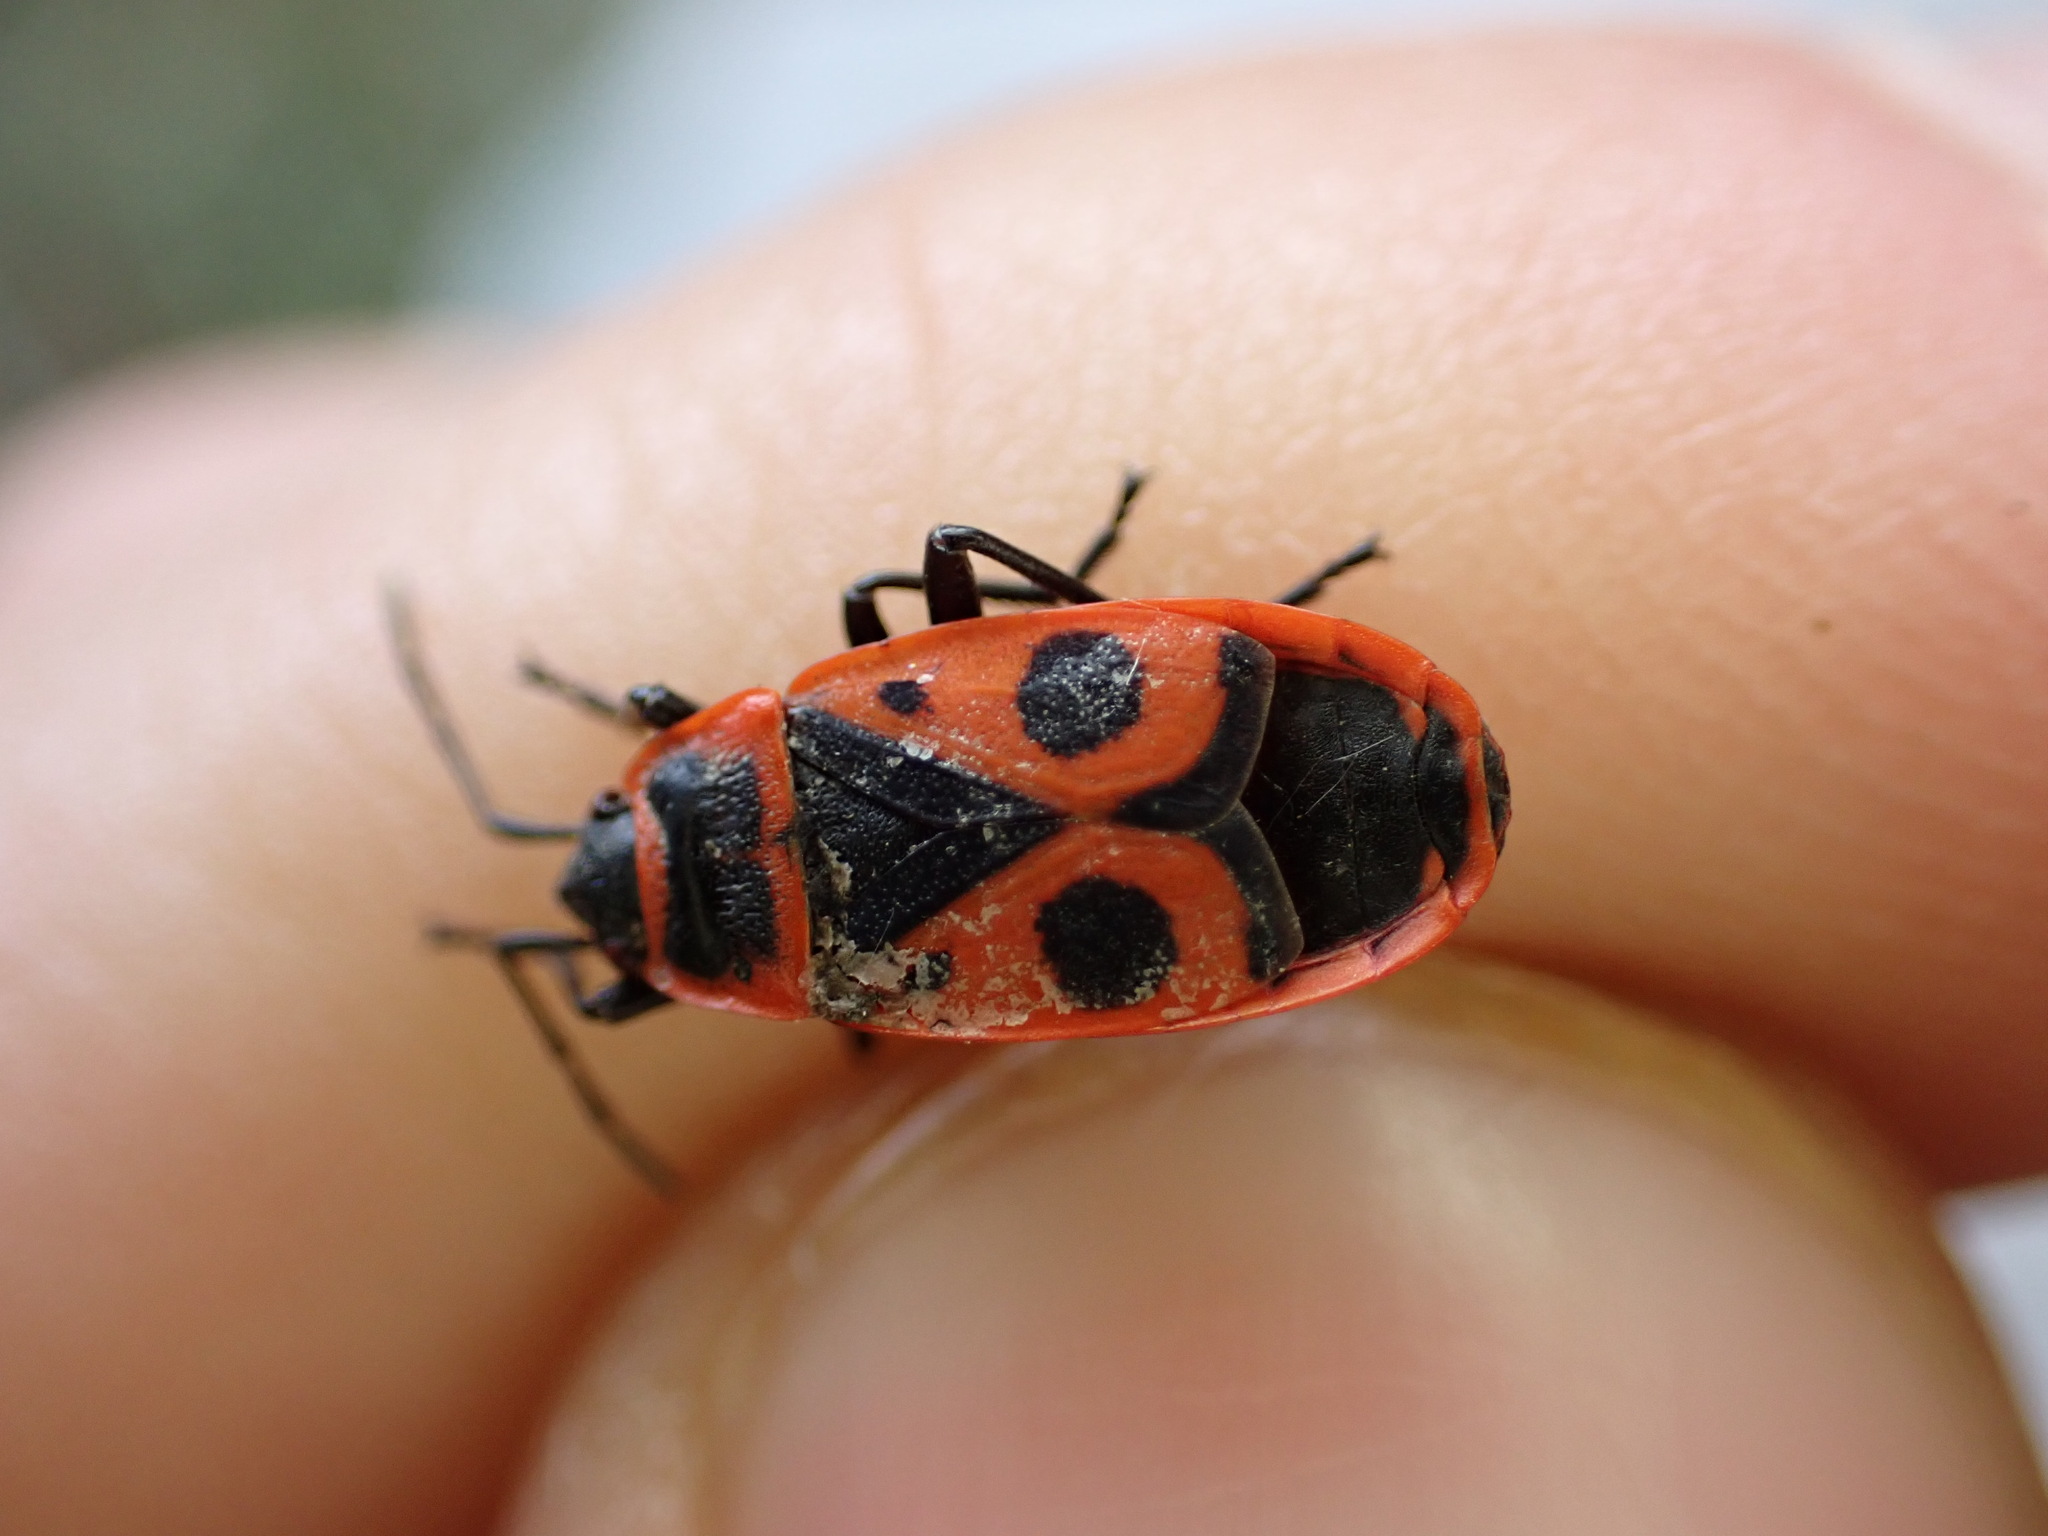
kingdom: Animalia
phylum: Arthropoda
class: Insecta
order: Hemiptera
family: Pyrrhocoridae
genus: Pyrrhocoris
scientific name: Pyrrhocoris apterus
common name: Firebug
